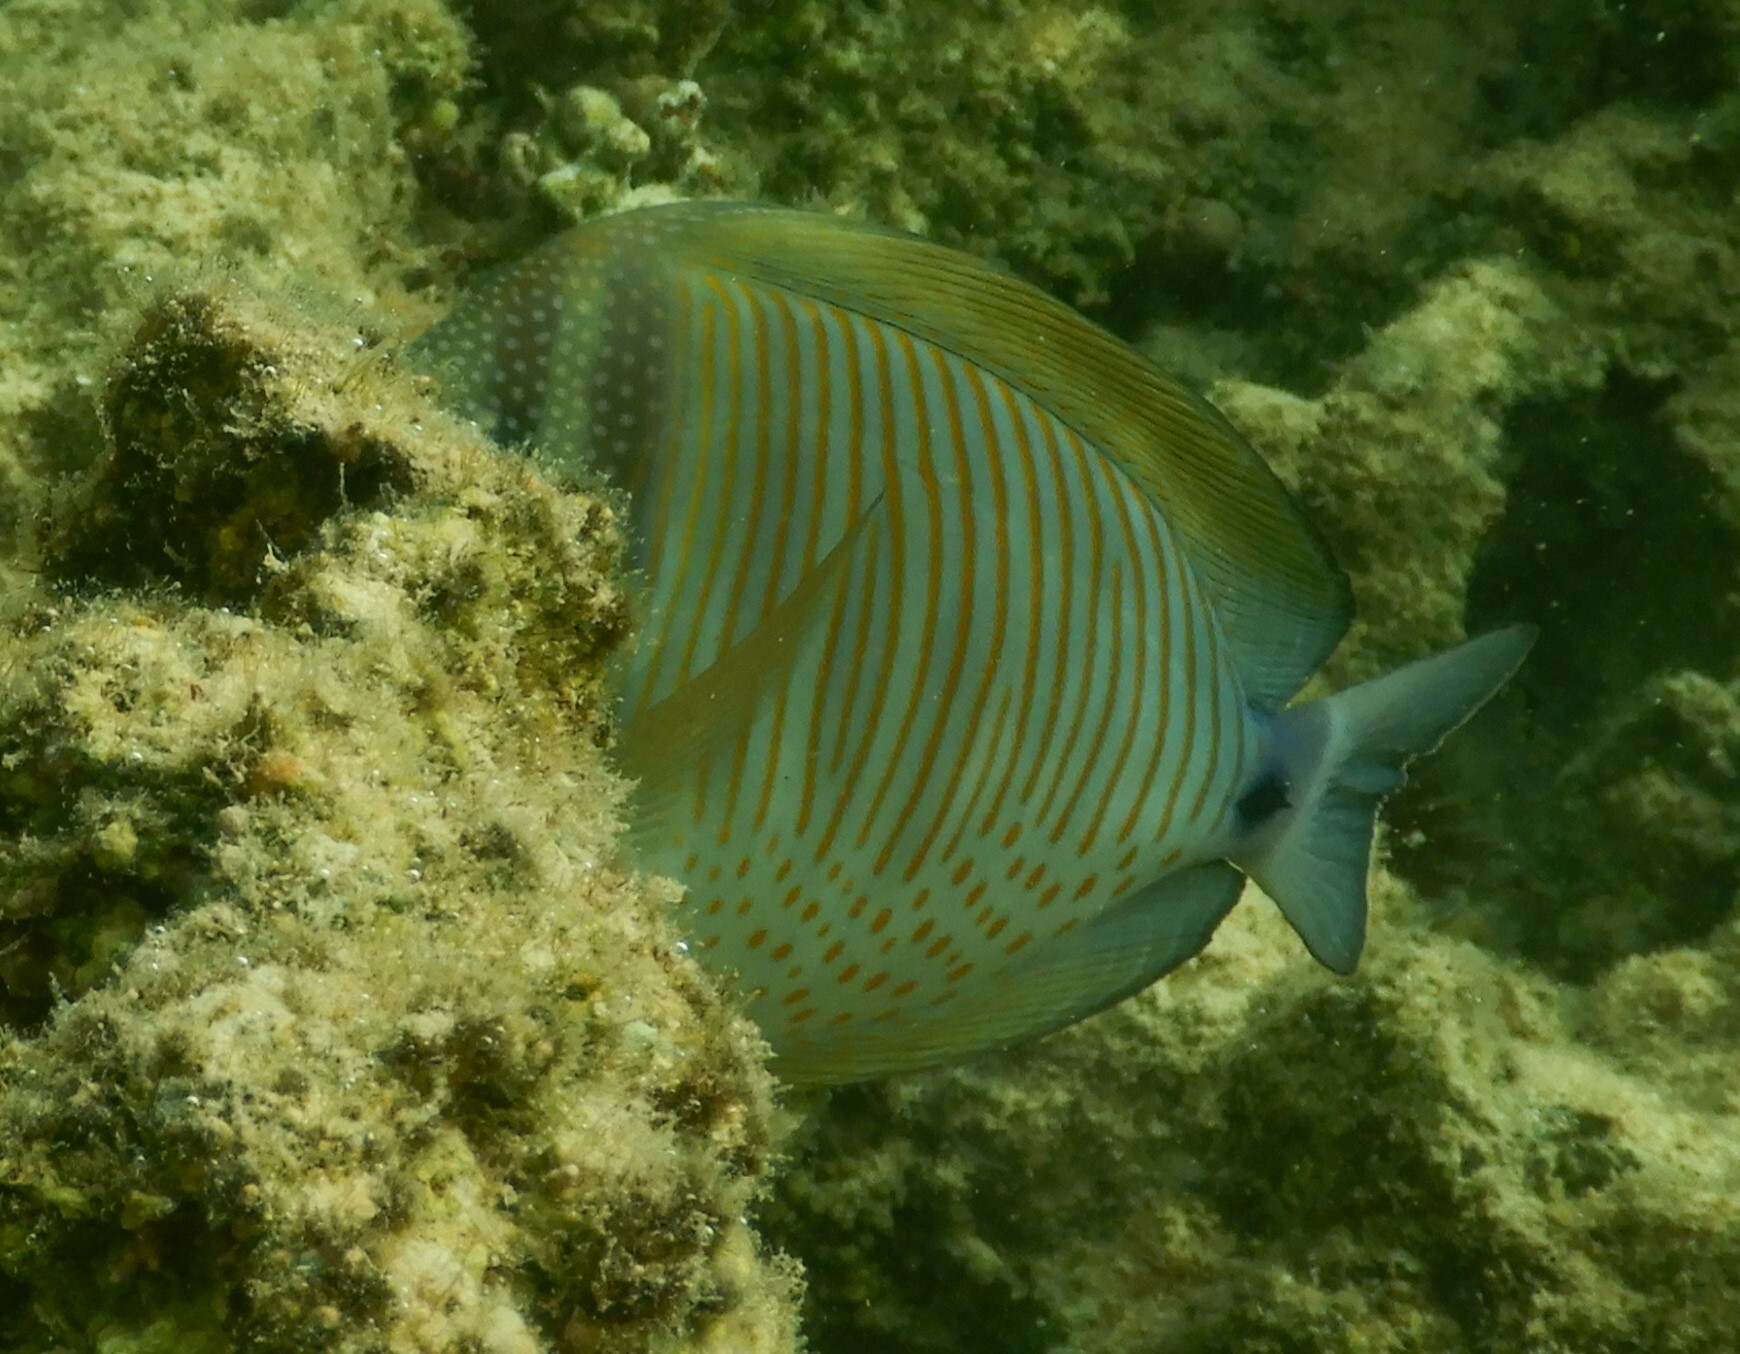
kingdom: Animalia
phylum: Chordata
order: Perciformes
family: Acanthuridae
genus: Zebrasoma
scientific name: Zebrasoma desjardinii
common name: Desjardin's sailfin tang
